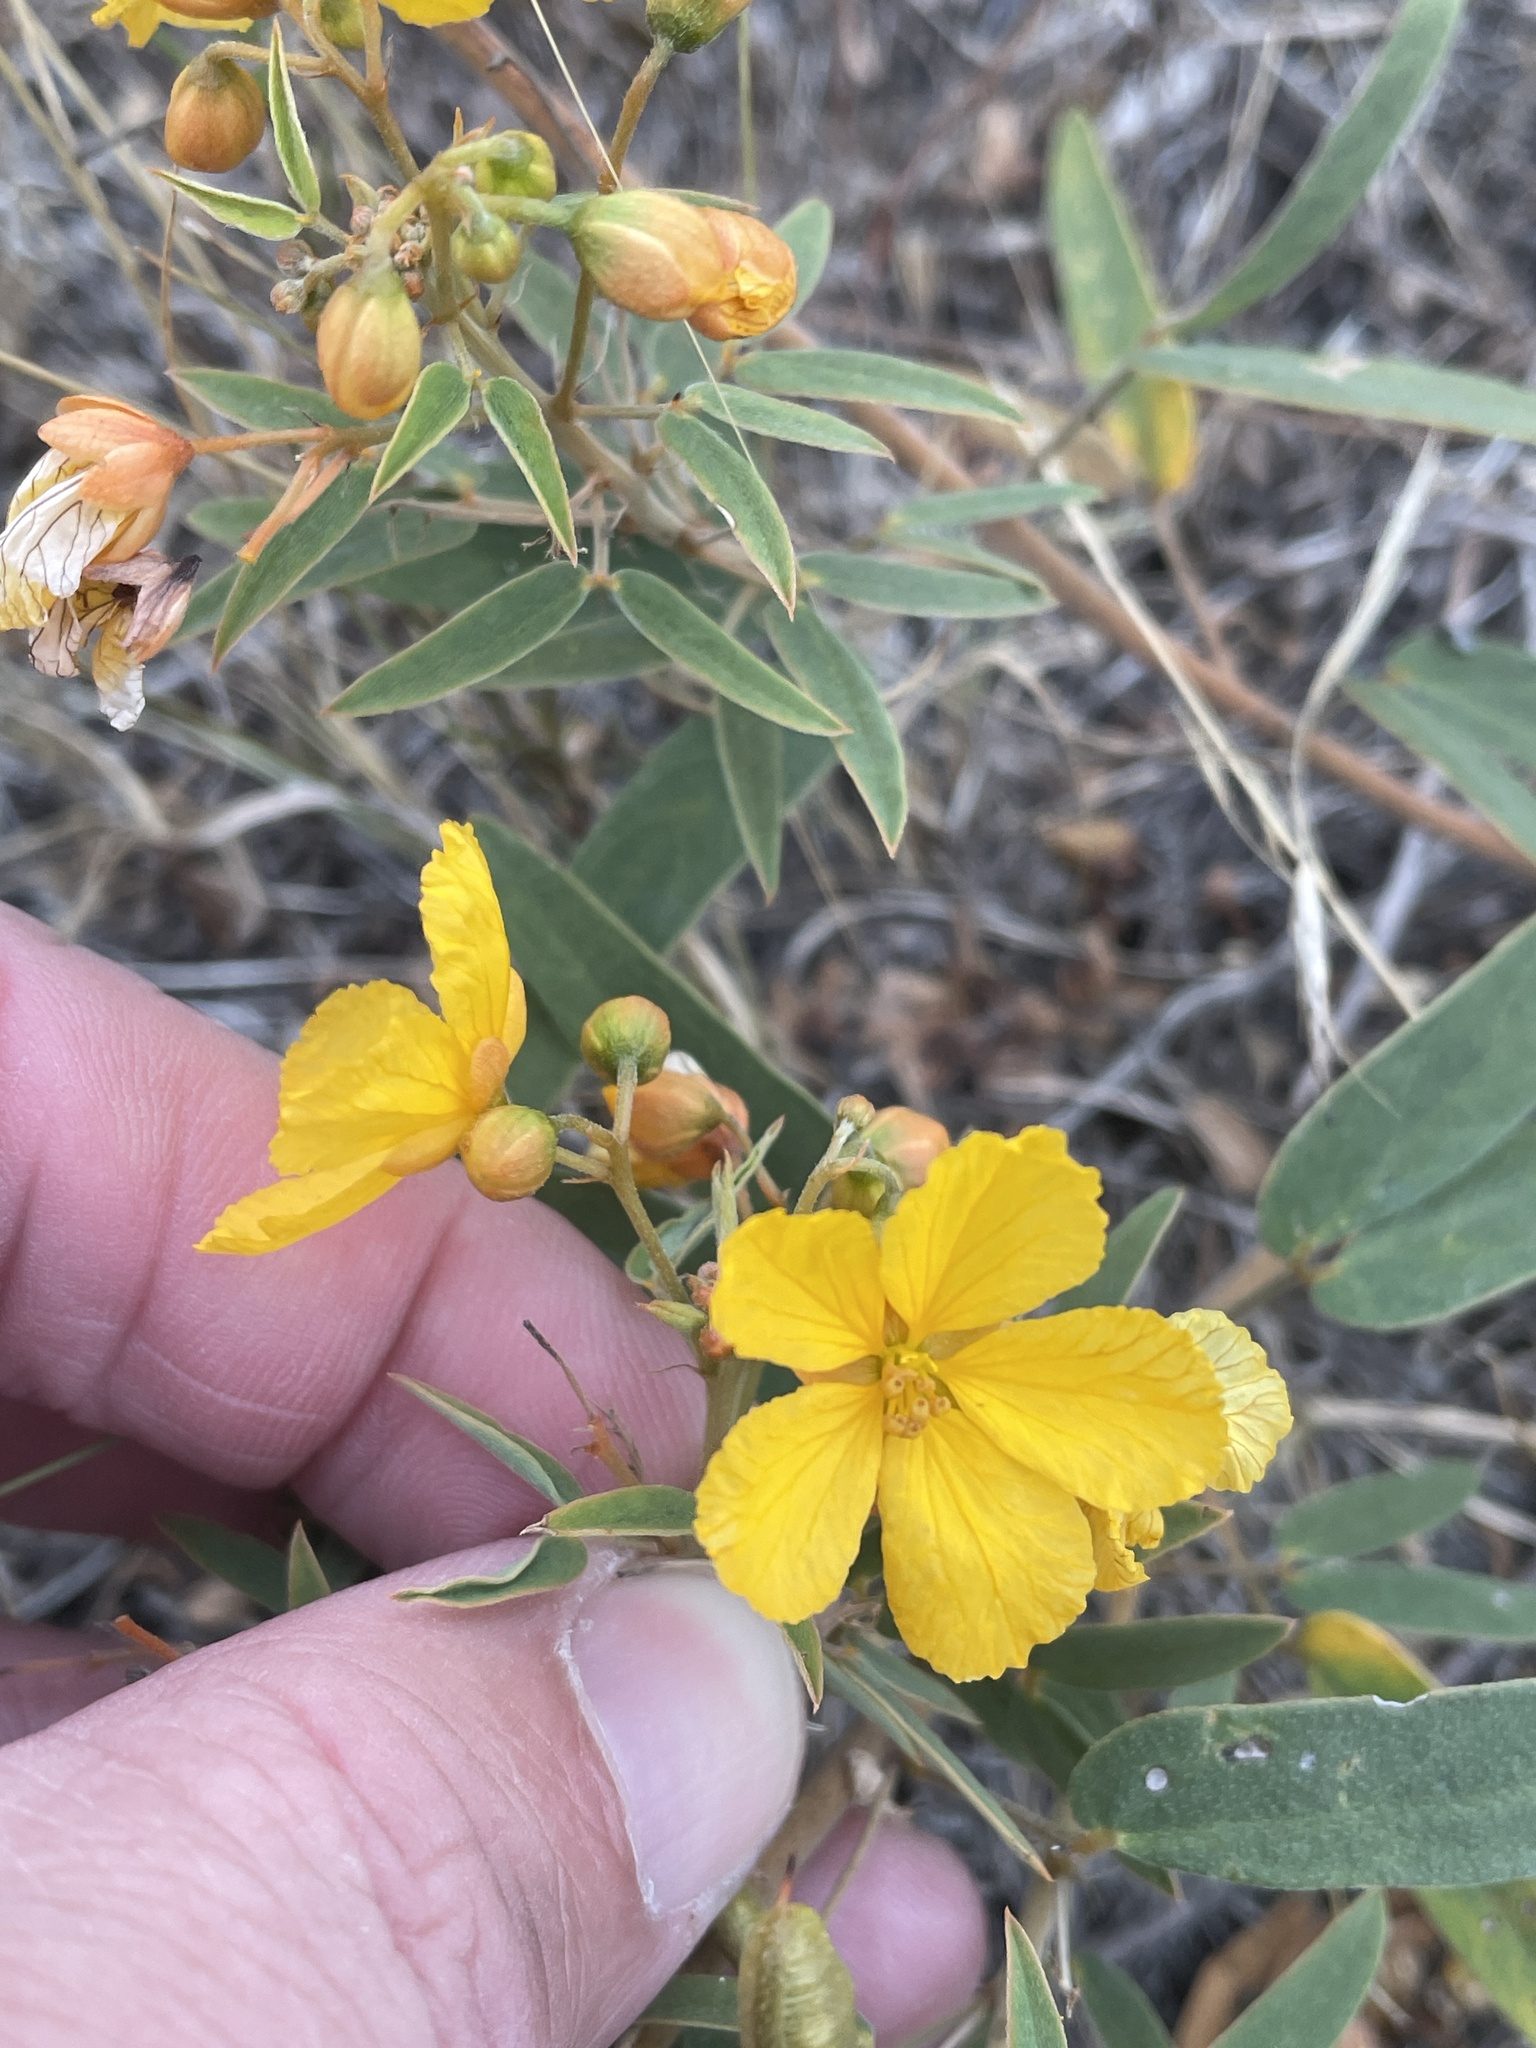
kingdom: Plantae
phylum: Tracheophyta
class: Magnoliopsida
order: Fabales
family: Fabaceae
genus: Senna
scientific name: Senna roemeriana
